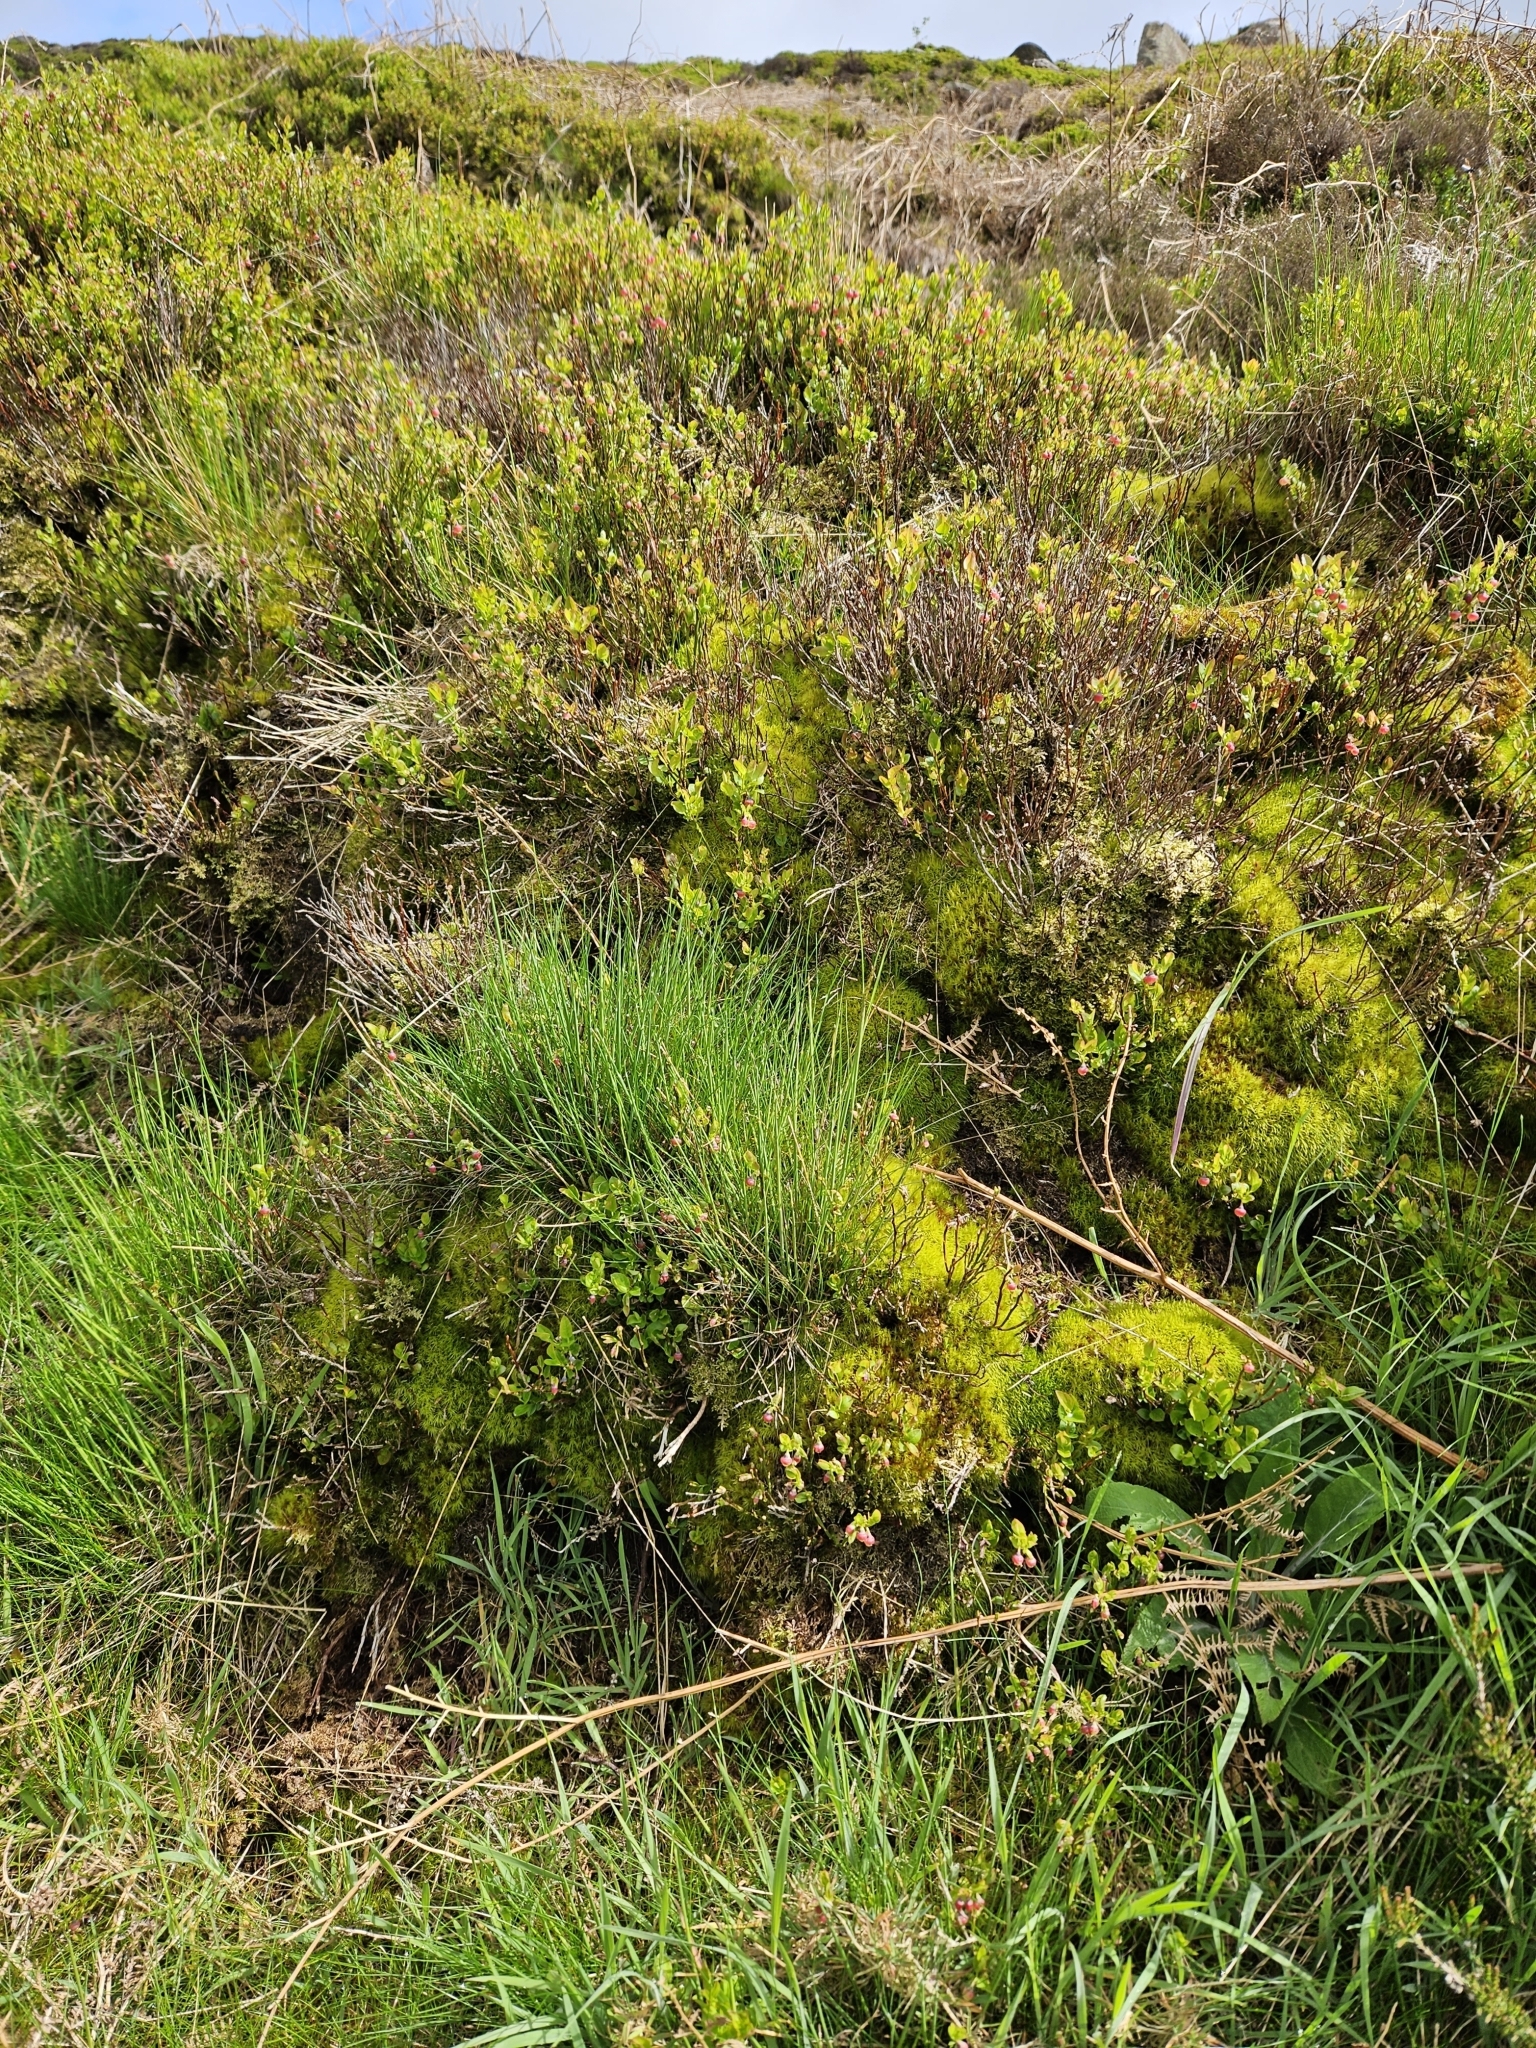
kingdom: Plantae
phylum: Bryophyta
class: Bryopsida
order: Dicranales
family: Dicranaceae
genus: Dicranum
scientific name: Dicranum scoparium
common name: Broom fork-moss
